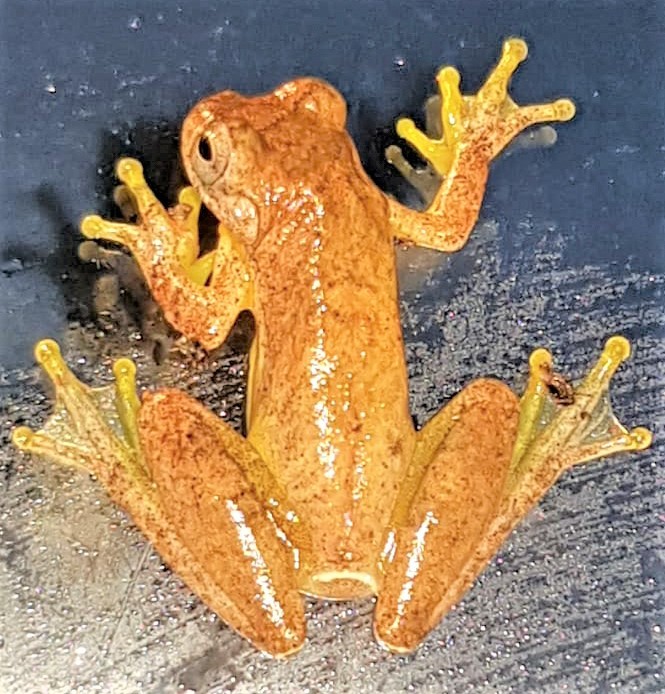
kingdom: Animalia
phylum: Chordata
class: Amphibia
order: Anura
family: Hylidae
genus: Dendropsophus
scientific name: Dendropsophus minutus
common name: Lesser treefrog
